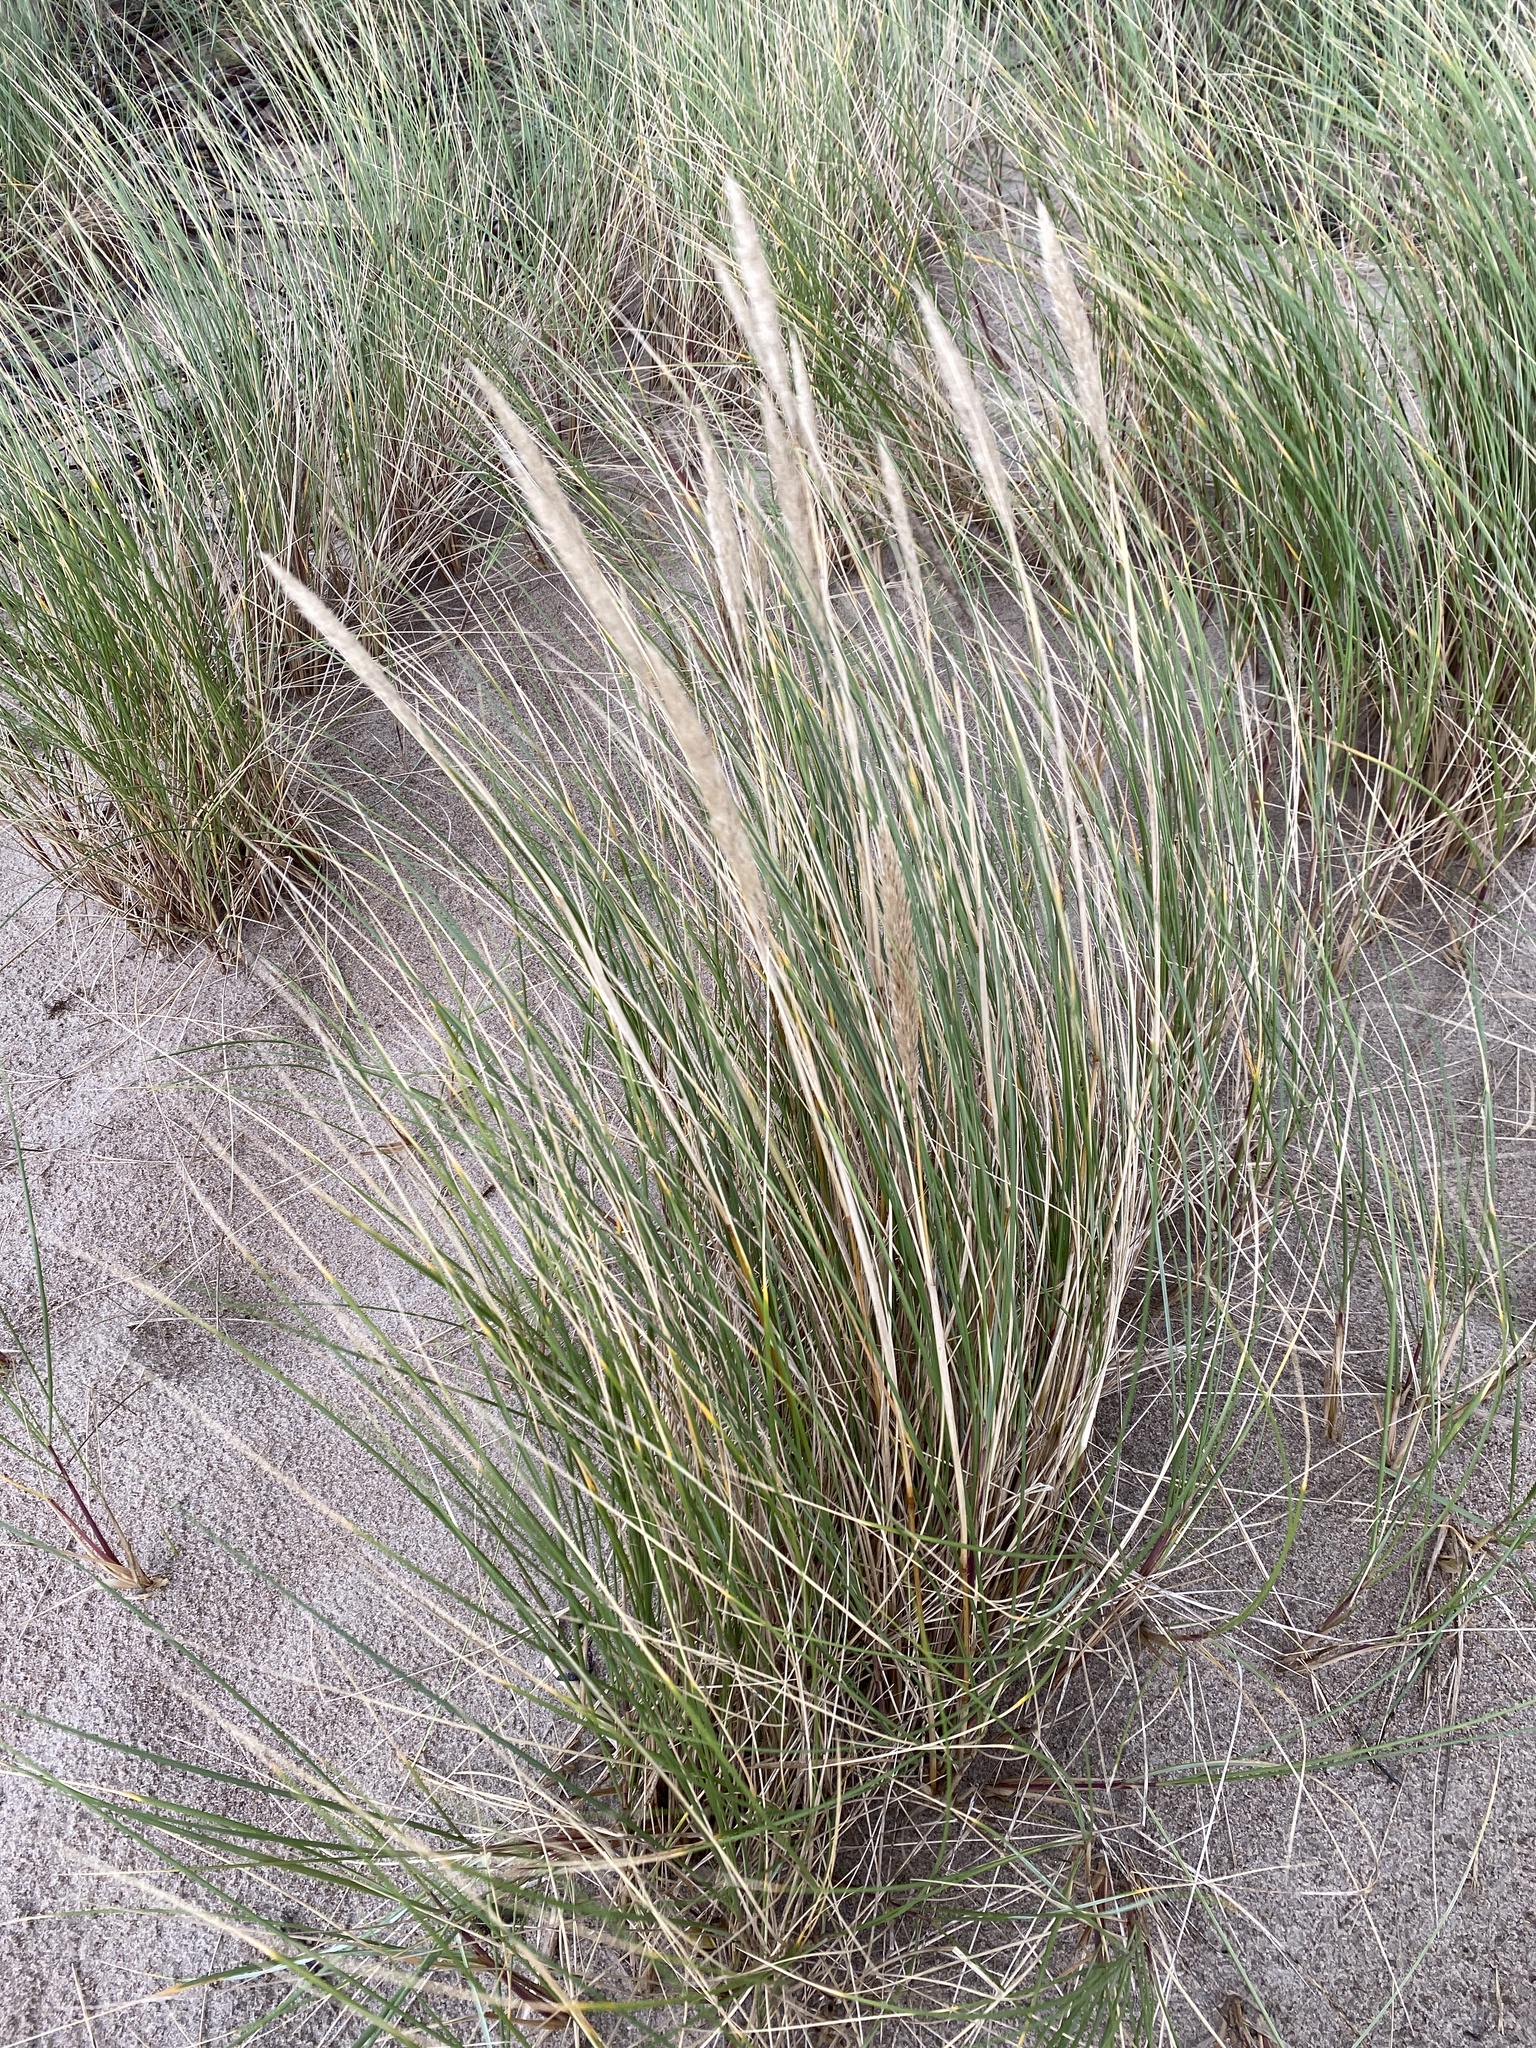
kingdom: Plantae
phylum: Tracheophyta
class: Liliopsida
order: Poales
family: Poaceae
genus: Calamagrostis
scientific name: Calamagrostis arenaria
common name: European beachgrass
